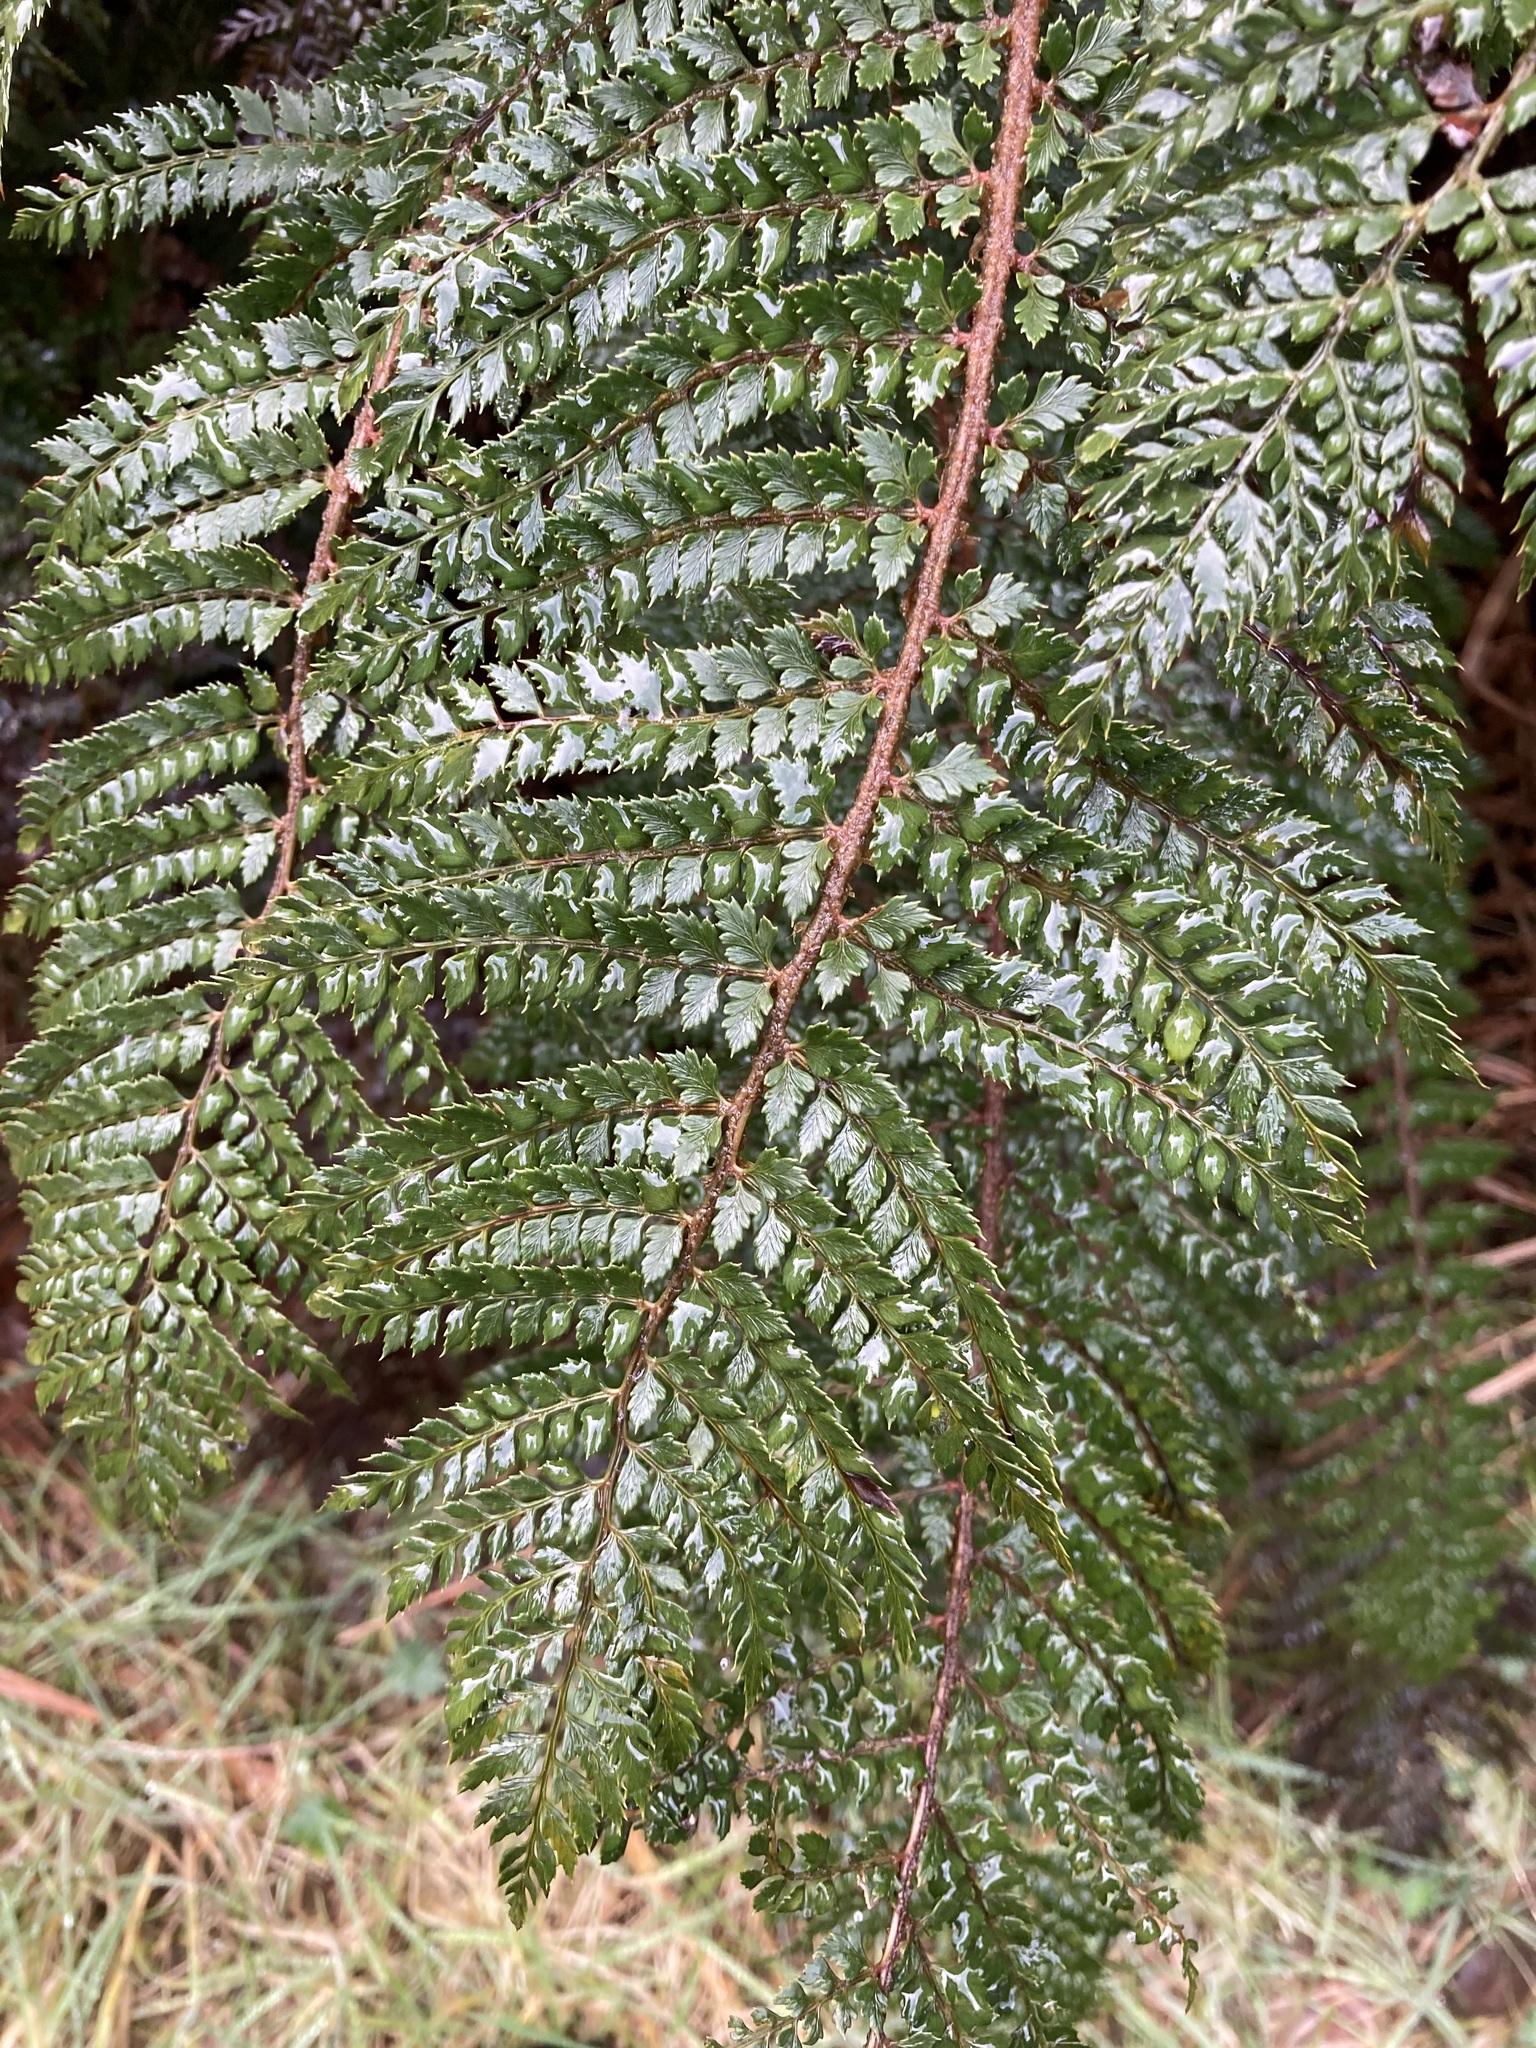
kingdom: Plantae
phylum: Tracheophyta
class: Polypodiopsida
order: Polypodiales
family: Dryopteridaceae
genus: Polystichum
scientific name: Polystichum vestitum
